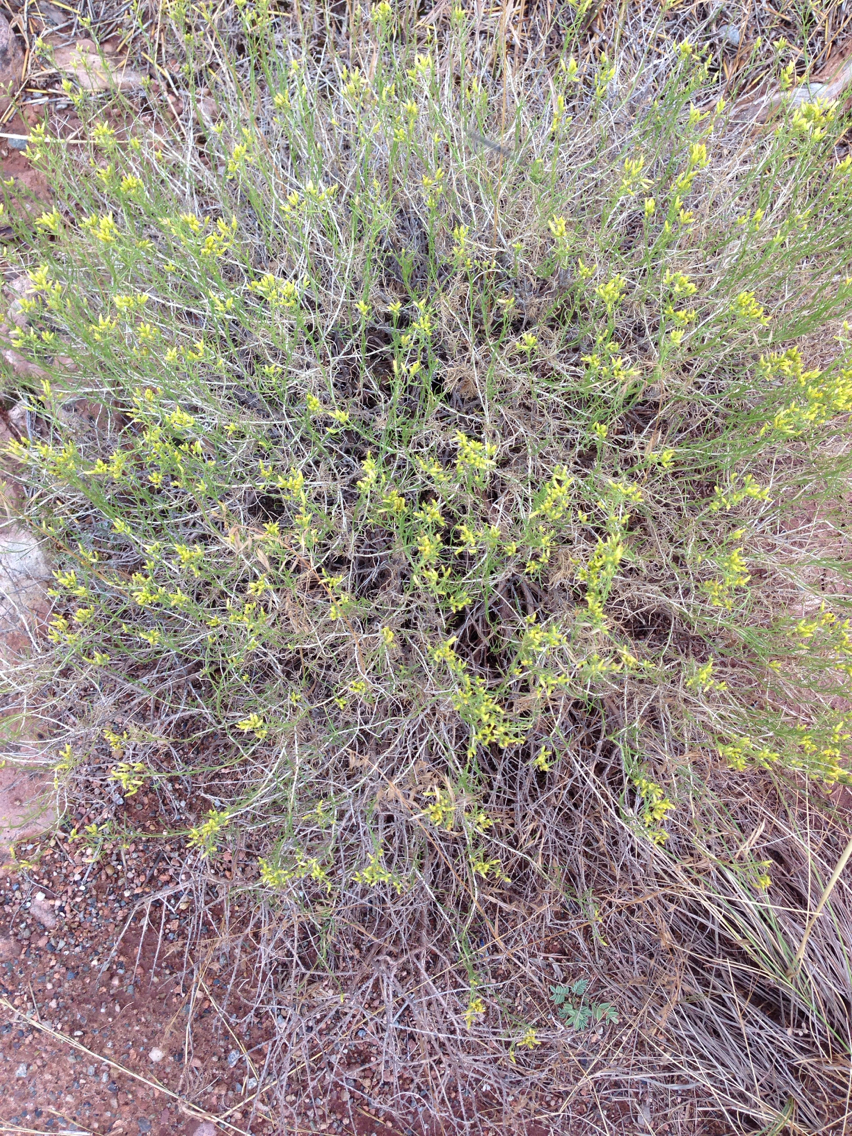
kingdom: Plantae
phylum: Tracheophyta
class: Magnoliopsida
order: Asterales
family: Asteraceae
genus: Gutierrezia
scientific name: Gutierrezia sarothrae
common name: Broom snakeweed
